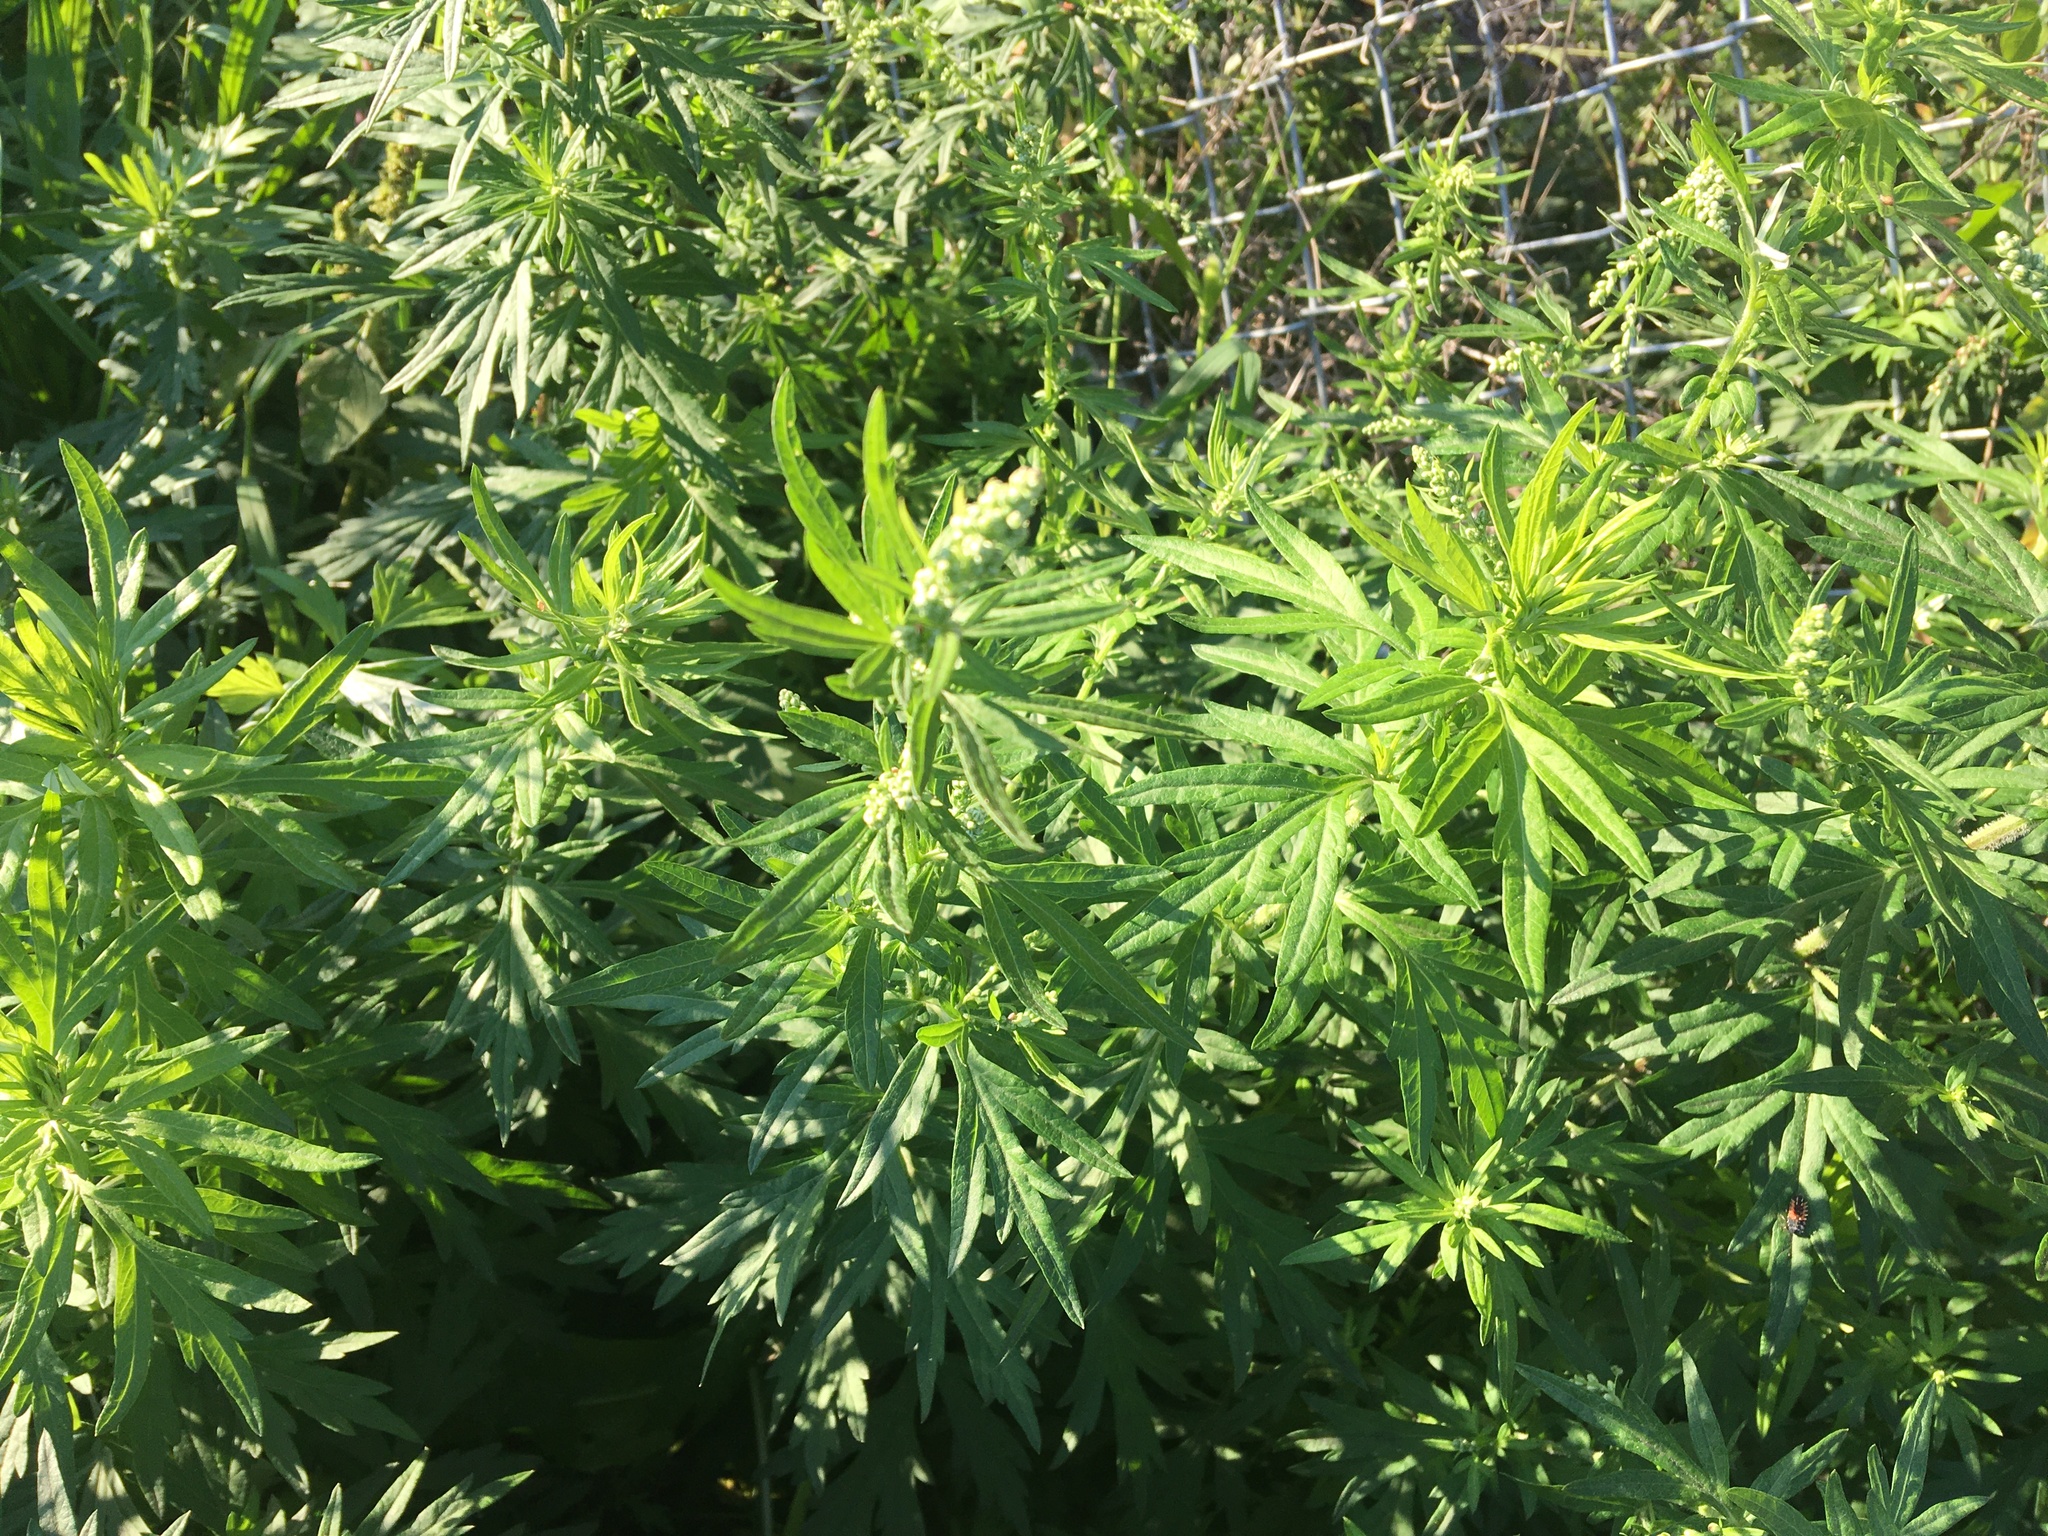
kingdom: Plantae
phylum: Tracheophyta
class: Magnoliopsida
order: Asterales
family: Asteraceae
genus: Artemisia
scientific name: Artemisia vulgaris
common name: Mugwort
